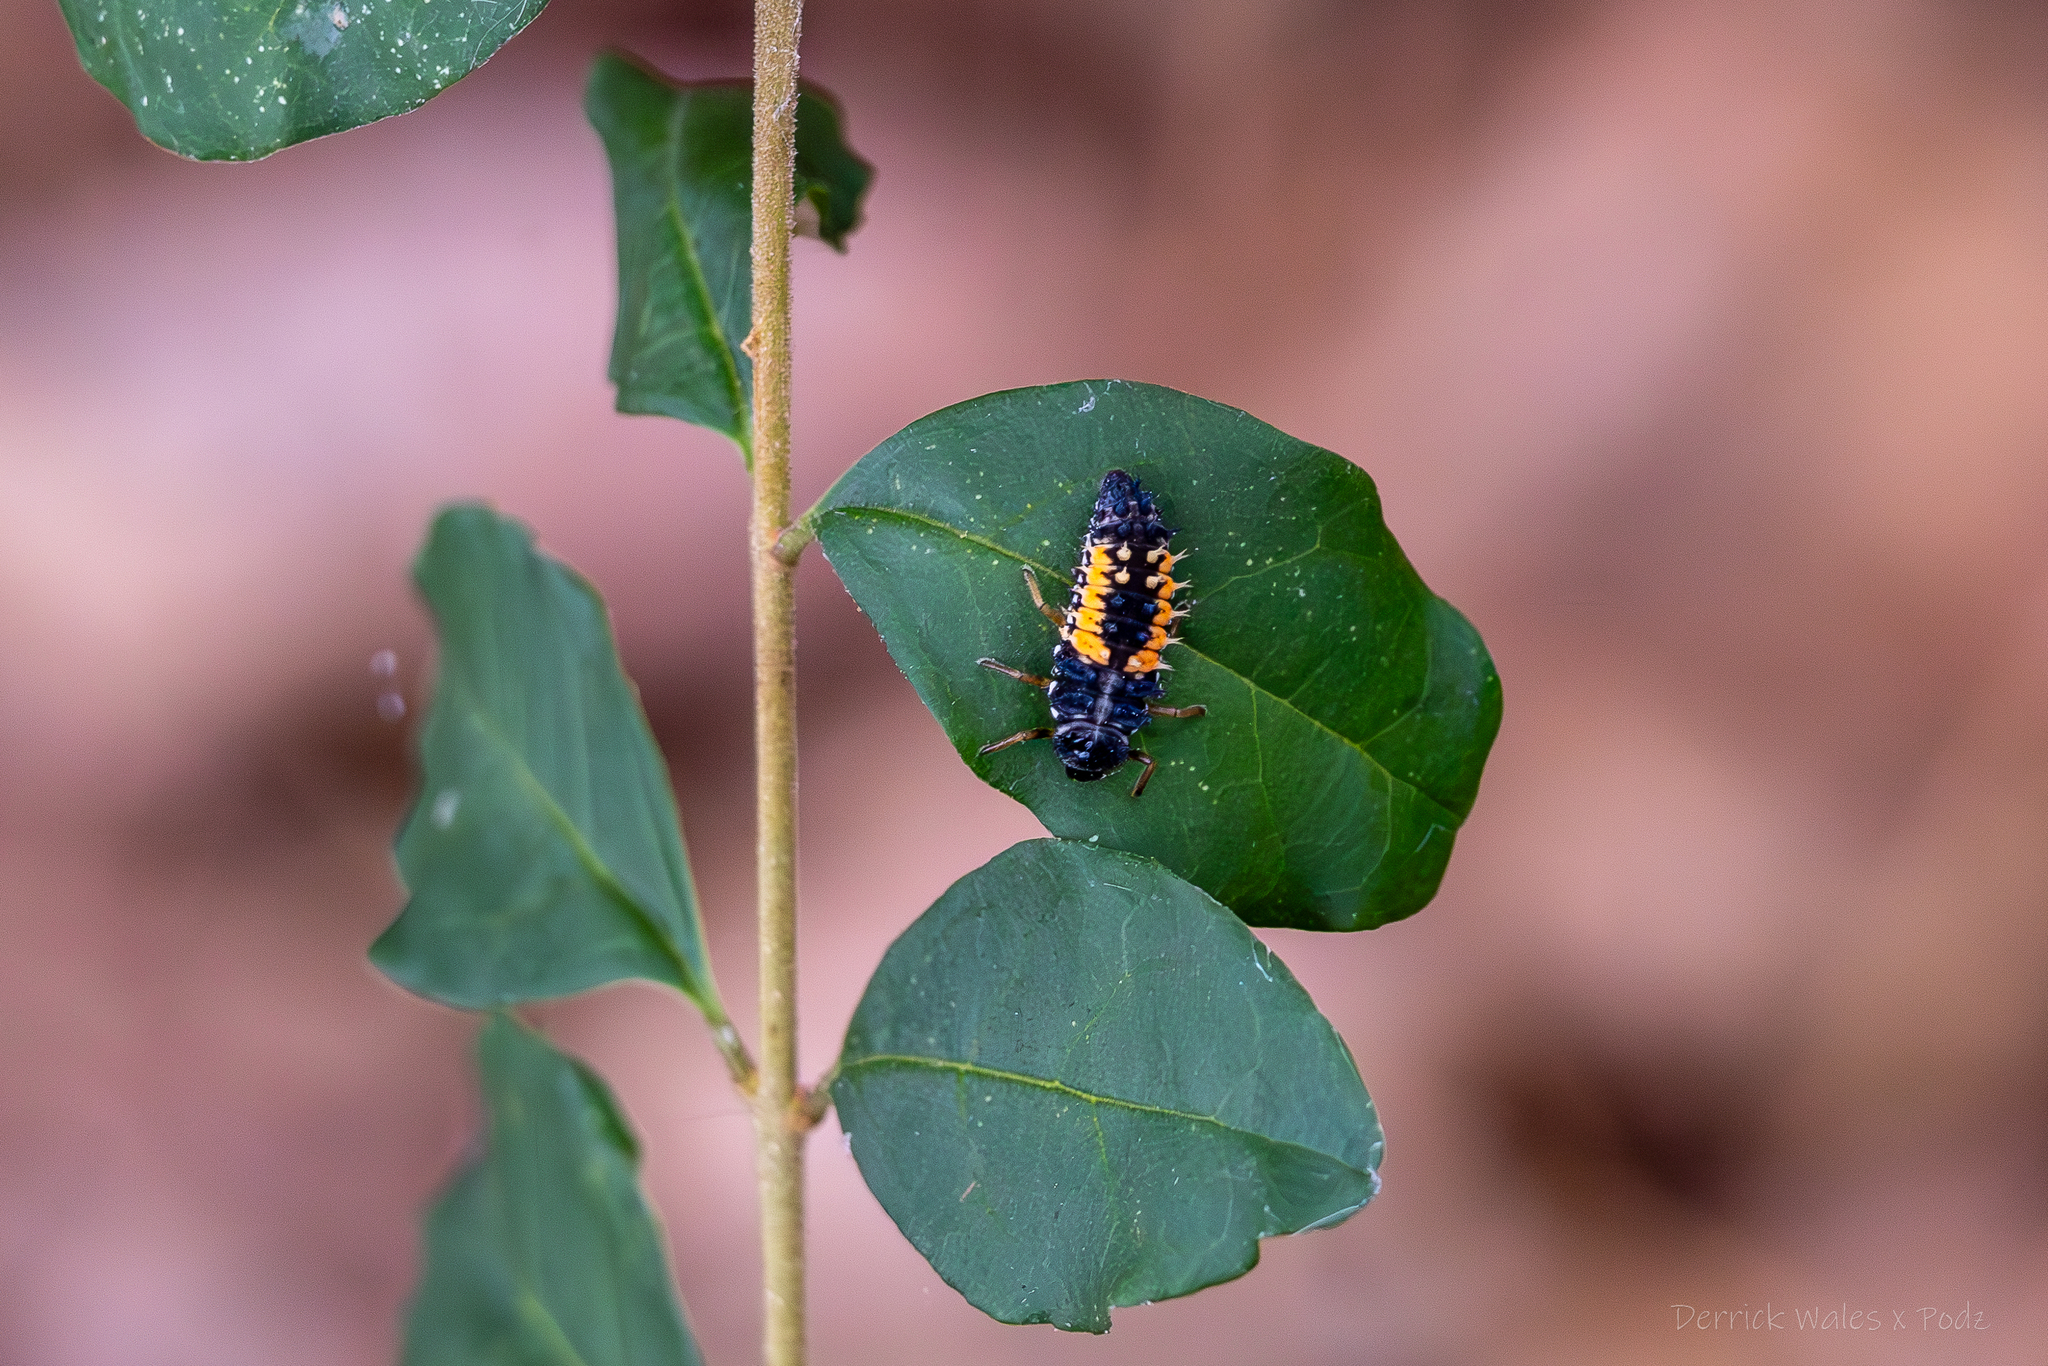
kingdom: Animalia
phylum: Arthropoda
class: Insecta
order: Coleoptera
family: Coccinellidae
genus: Harmonia
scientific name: Harmonia axyridis
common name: Harlequin ladybird
